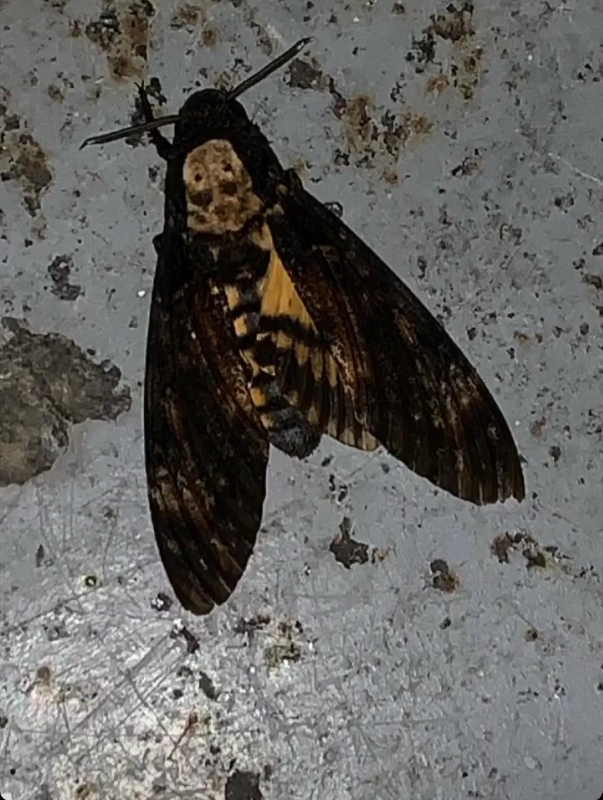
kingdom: Animalia
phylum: Arthropoda
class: Insecta
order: Lepidoptera
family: Sphingidae
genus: Acherontia
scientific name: Acherontia atropos
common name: Death's-head hawk moth
